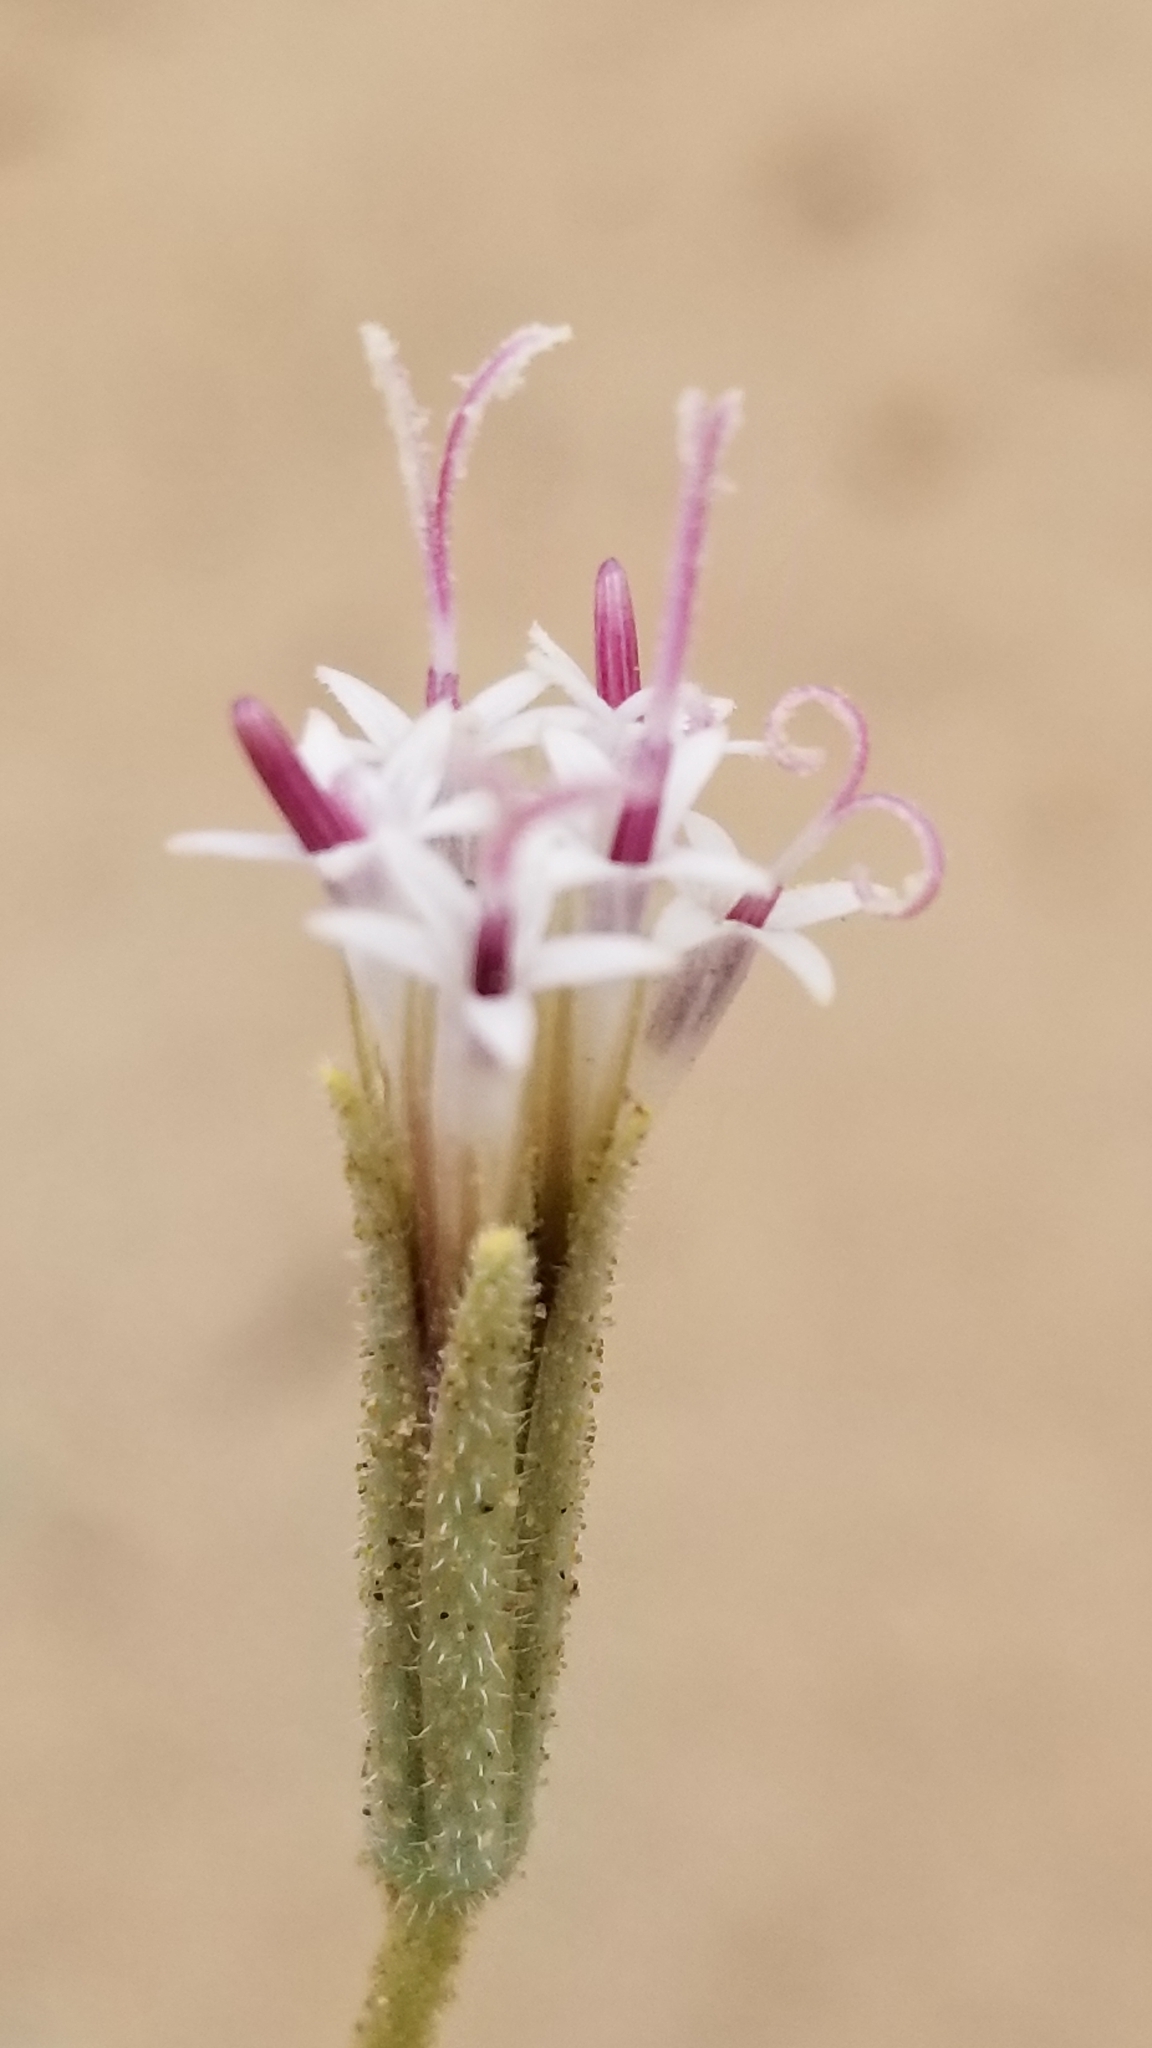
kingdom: Plantae
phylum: Tracheophyta
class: Magnoliopsida
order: Asterales
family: Asteraceae
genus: Palafoxia
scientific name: Palafoxia arida
